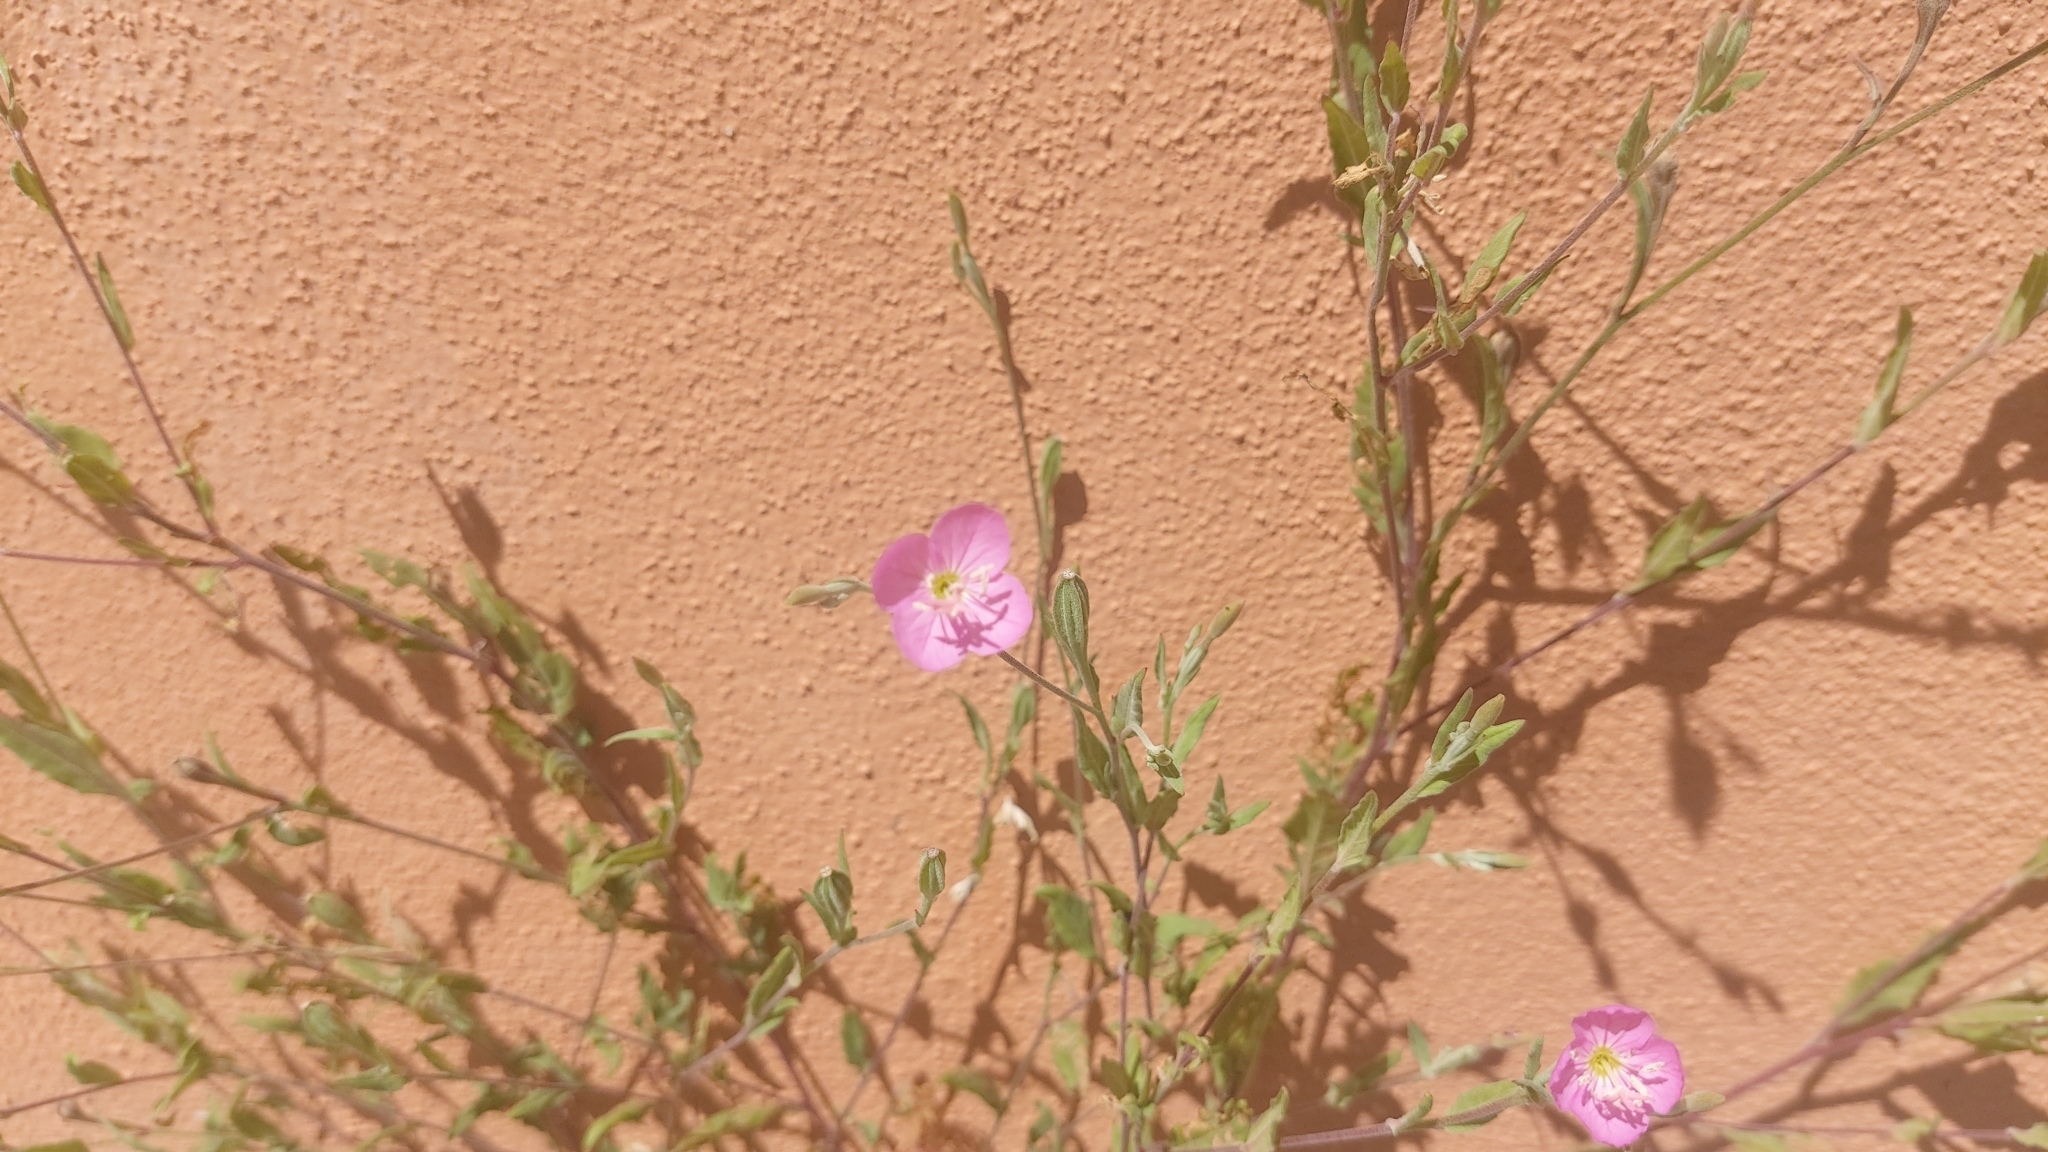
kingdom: Plantae
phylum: Tracheophyta
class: Magnoliopsida
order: Myrtales
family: Onagraceae
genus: Oenothera
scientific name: Oenothera rosea
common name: Rosy evening-primrose
